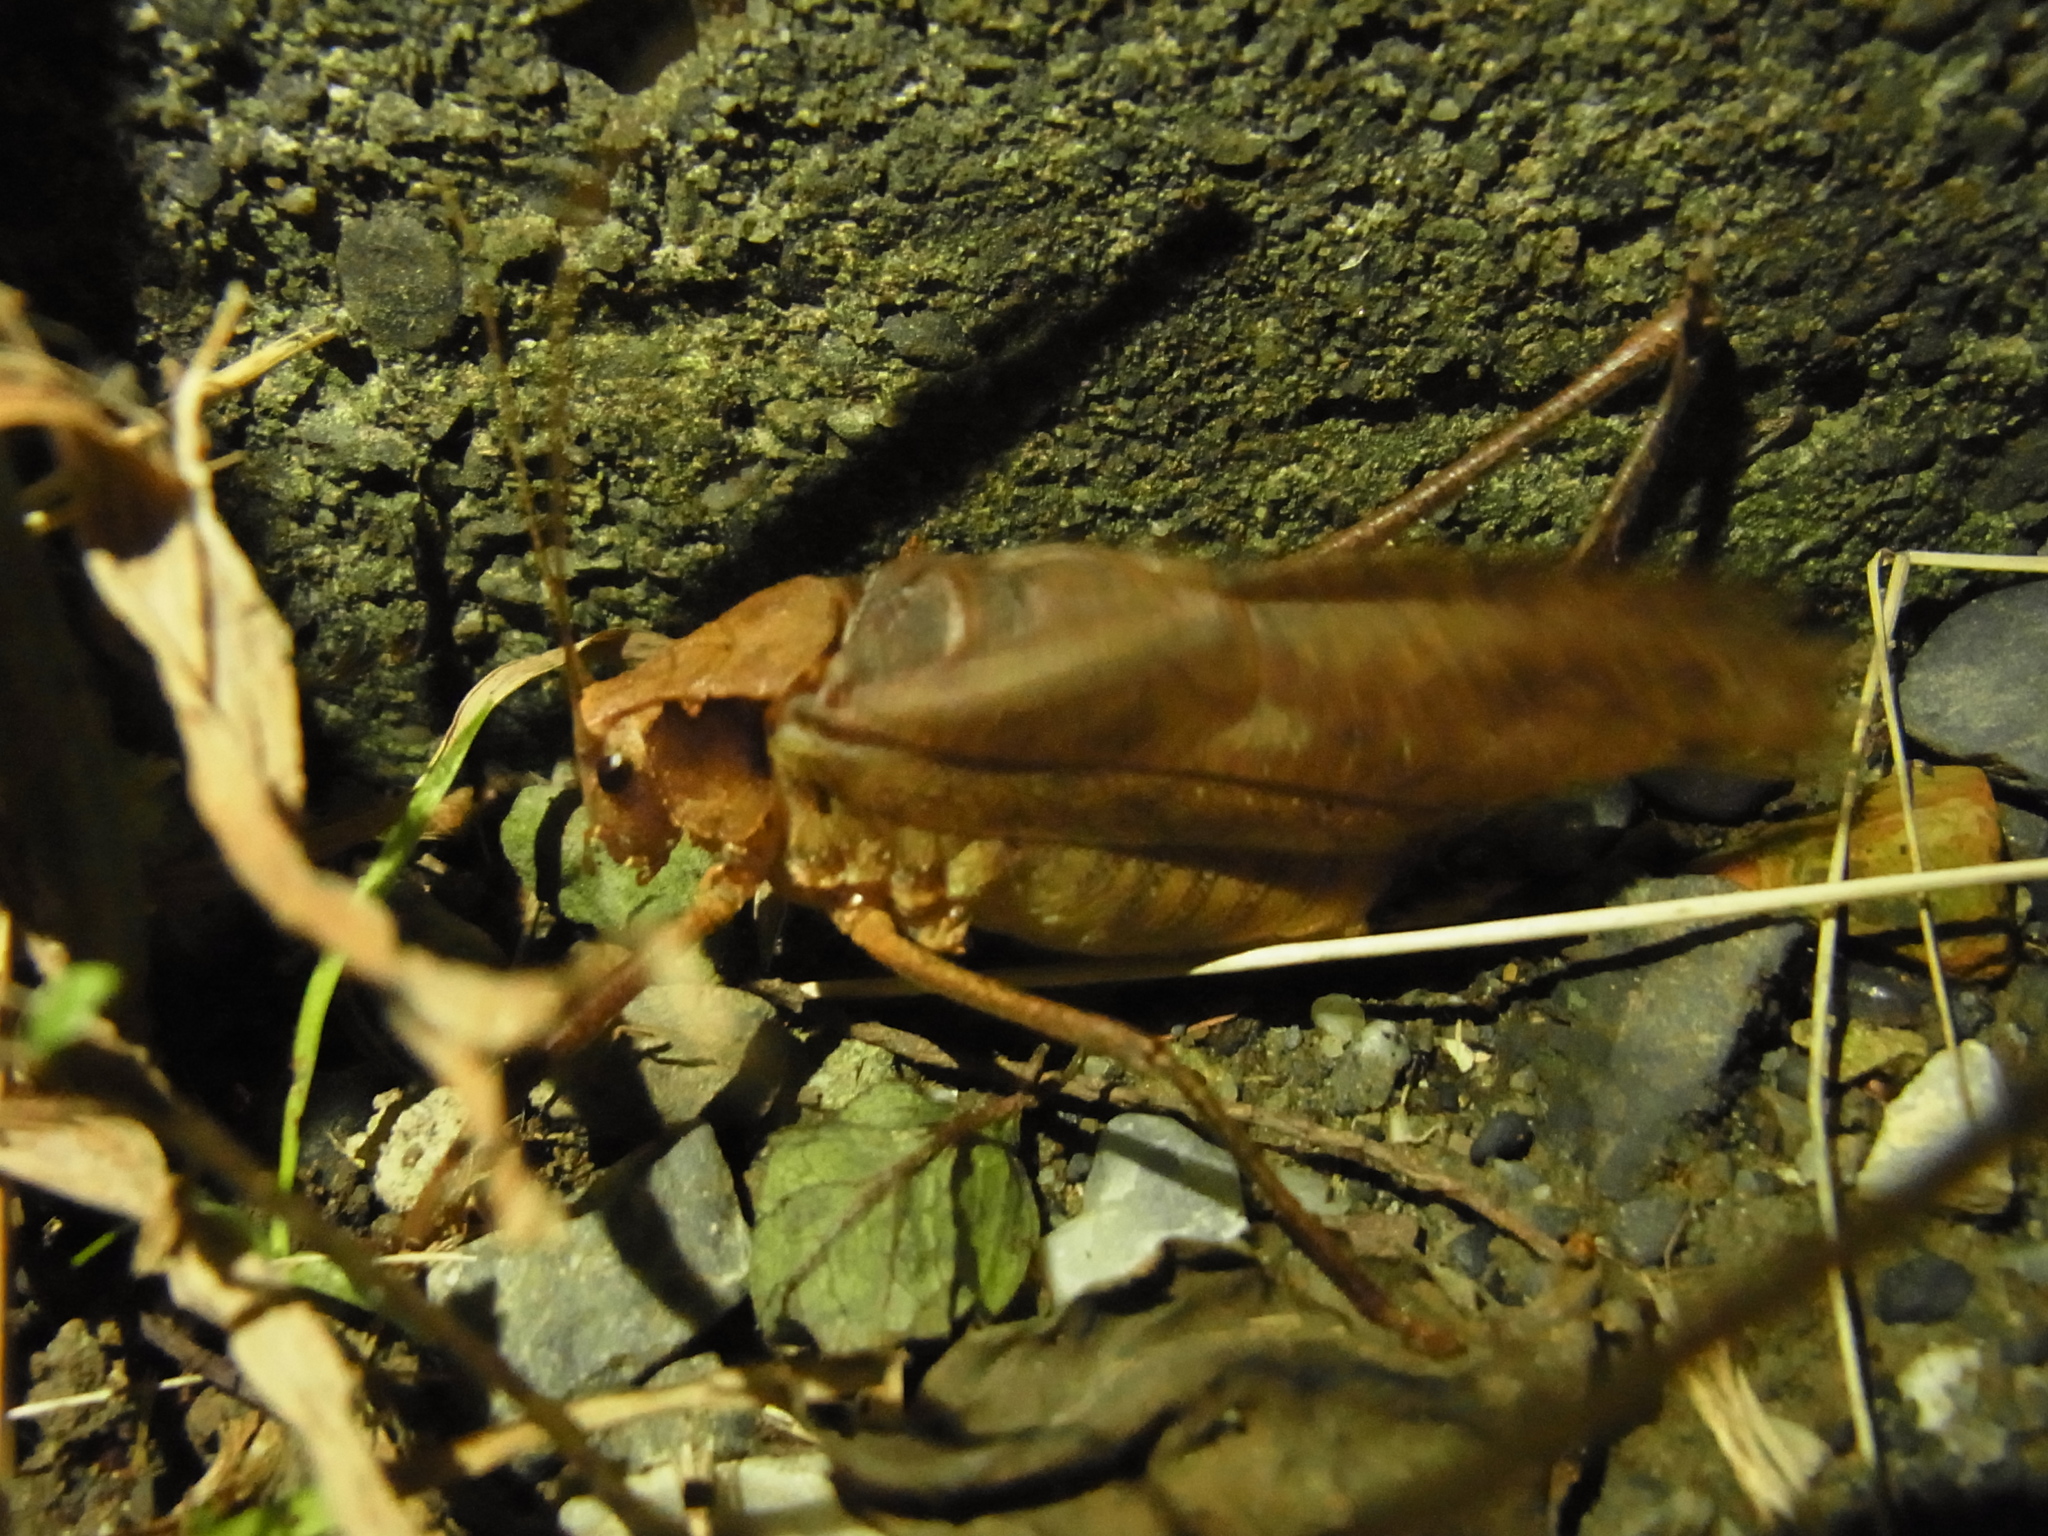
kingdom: Animalia
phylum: Arthropoda
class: Insecta
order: Orthoptera
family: Tettigoniidae
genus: Mecopoda
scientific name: Mecopoda elongata
